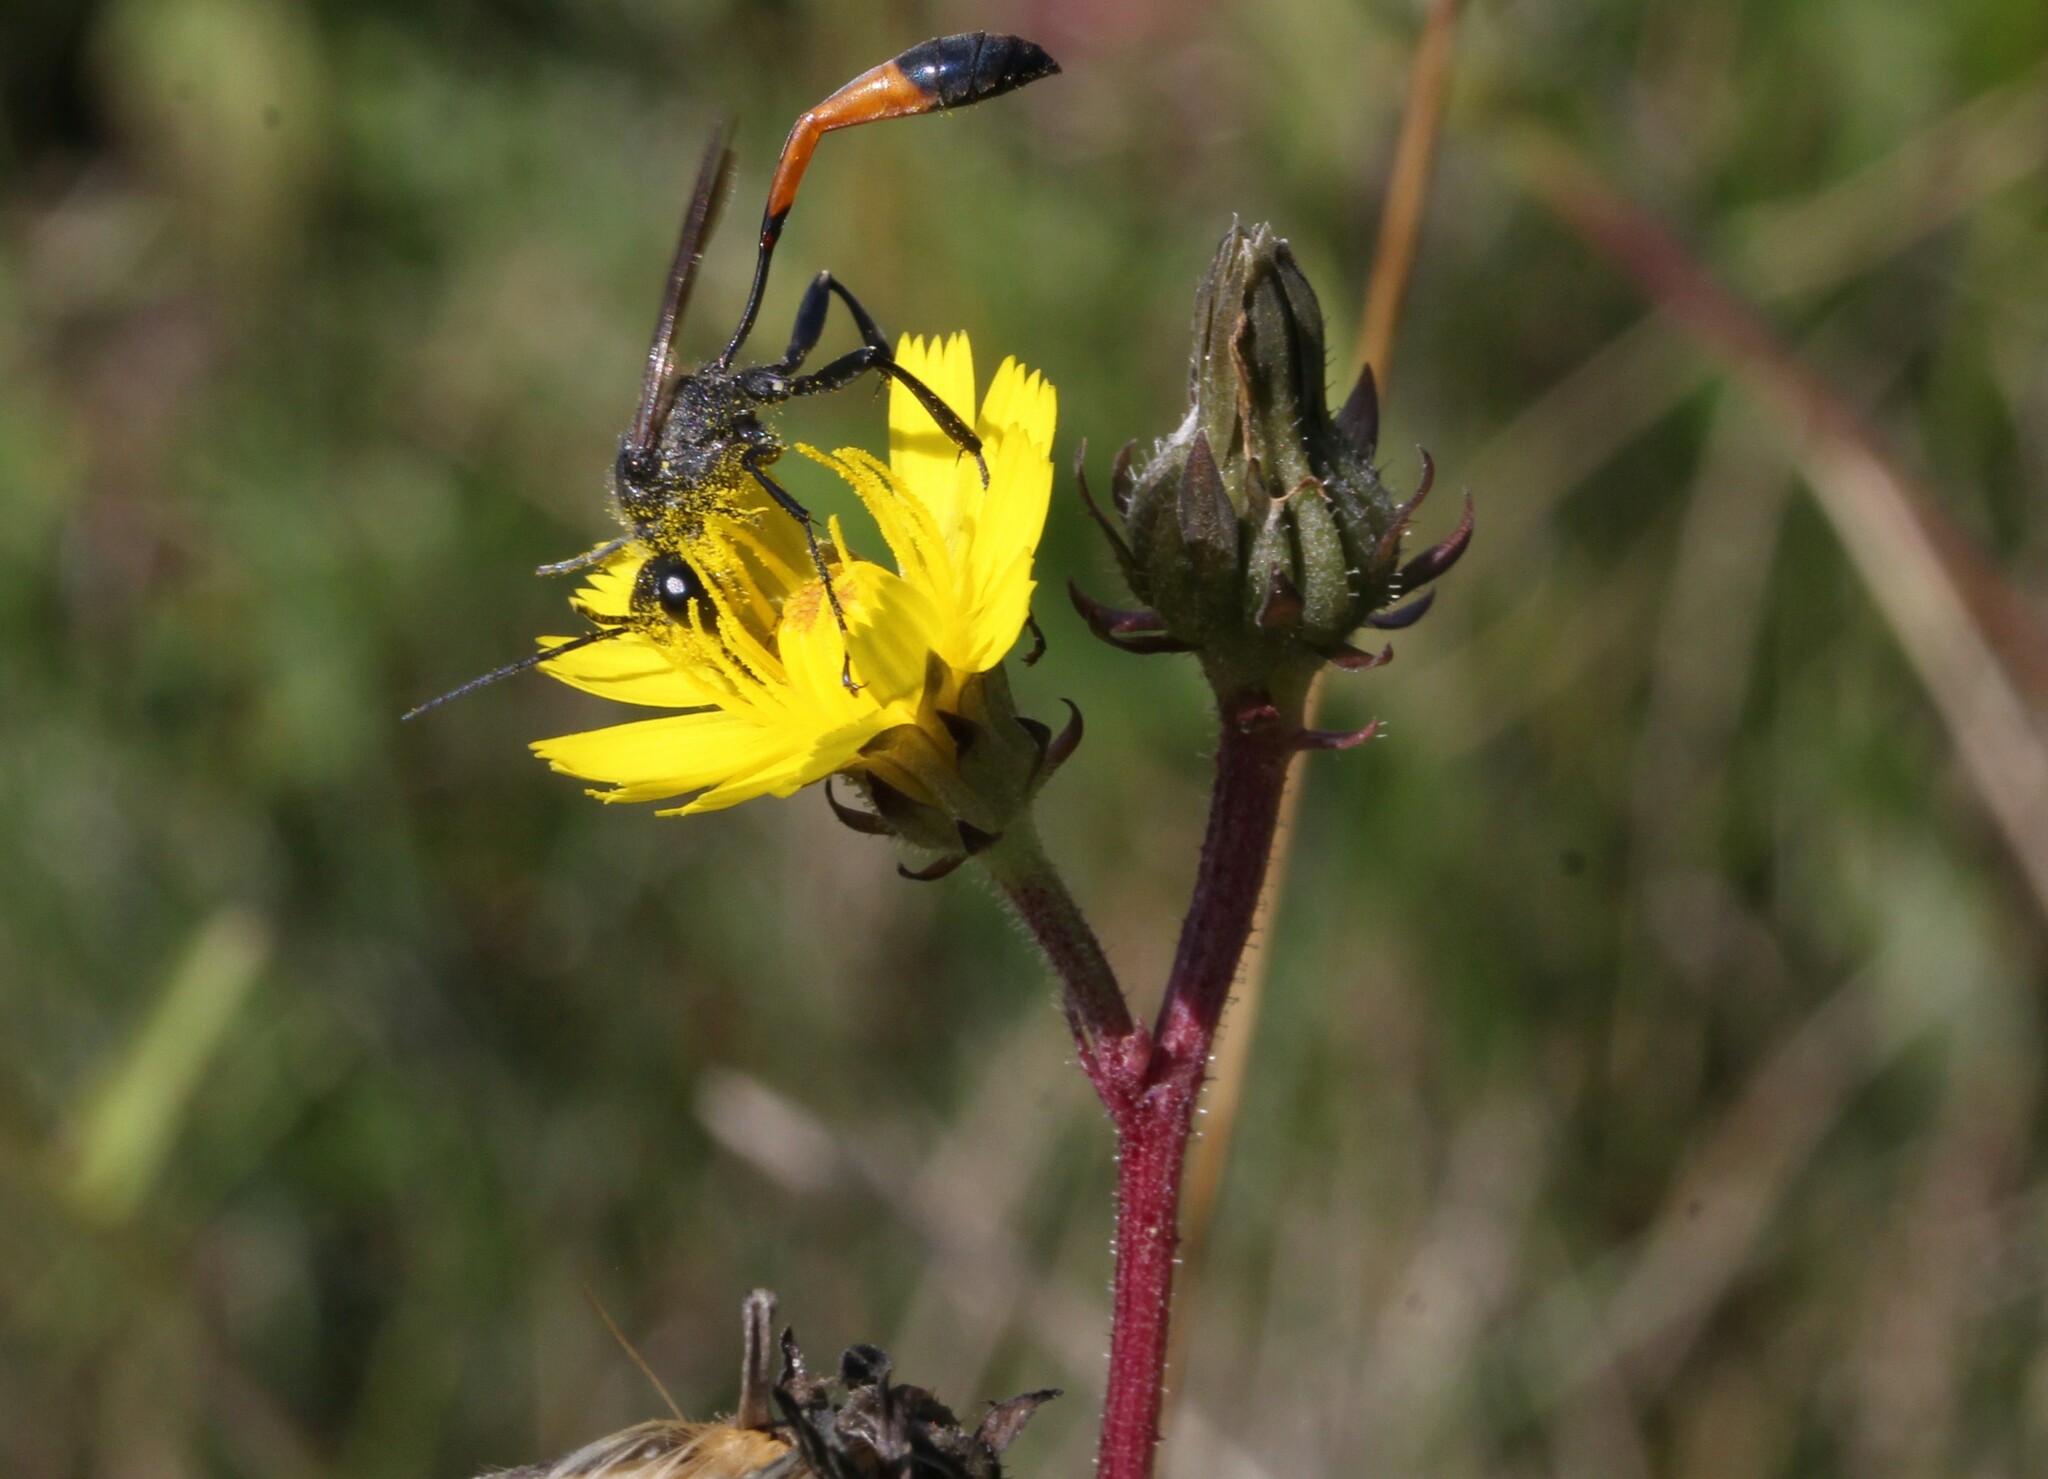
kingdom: Plantae
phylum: Tracheophyta
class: Magnoliopsida
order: Asterales
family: Asteraceae
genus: Picris
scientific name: Picris hieracioides
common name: Hawkweed oxtongue
